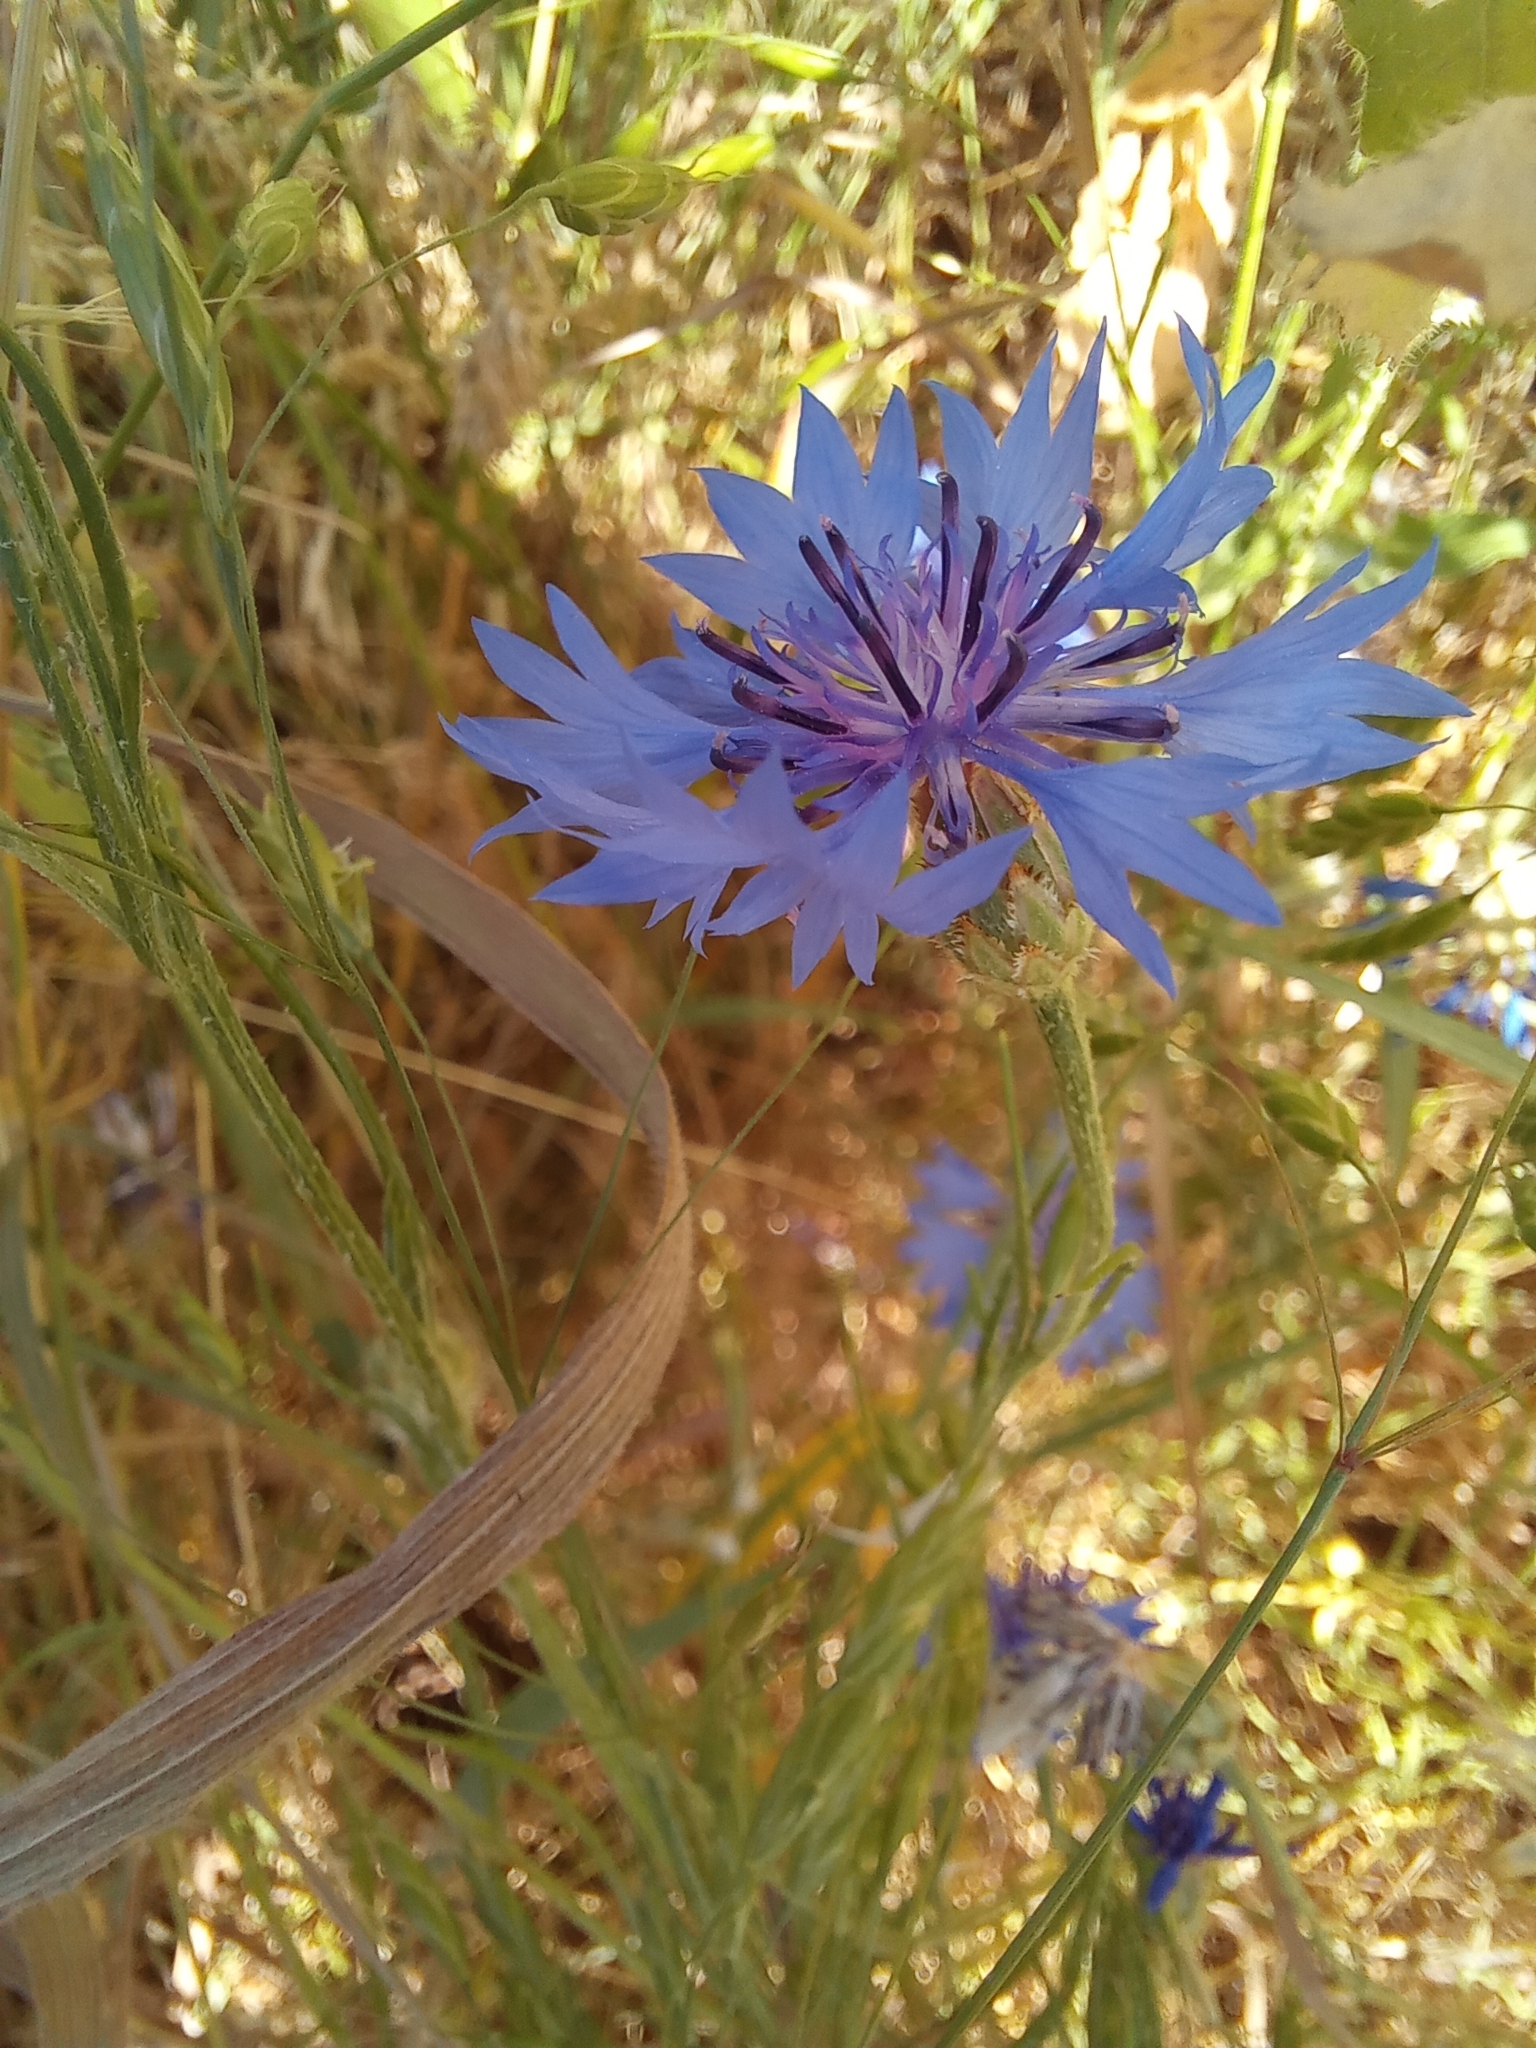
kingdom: Plantae
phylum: Tracheophyta
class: Magnoliopsida
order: Asterales
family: Asteraceae
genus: Centaurea
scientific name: Centaurea cyanus
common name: Cornflower
